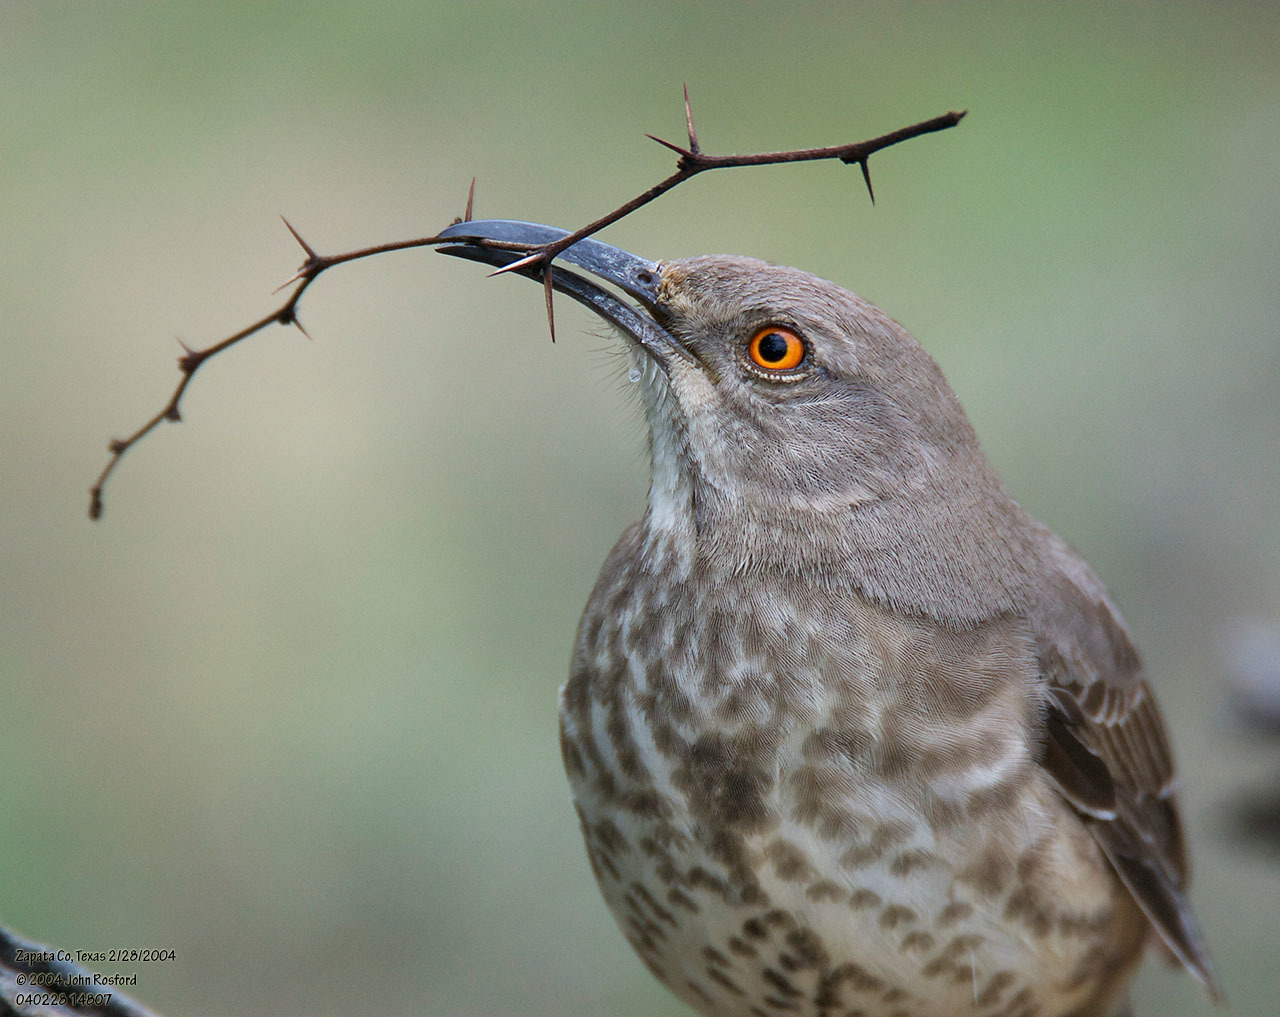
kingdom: Animalia
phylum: Chordata
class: Aves
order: Passeriformes
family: Mimidae
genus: Toxostoma
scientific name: Toxostoma curvirostre
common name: Curve-billed thrasher
